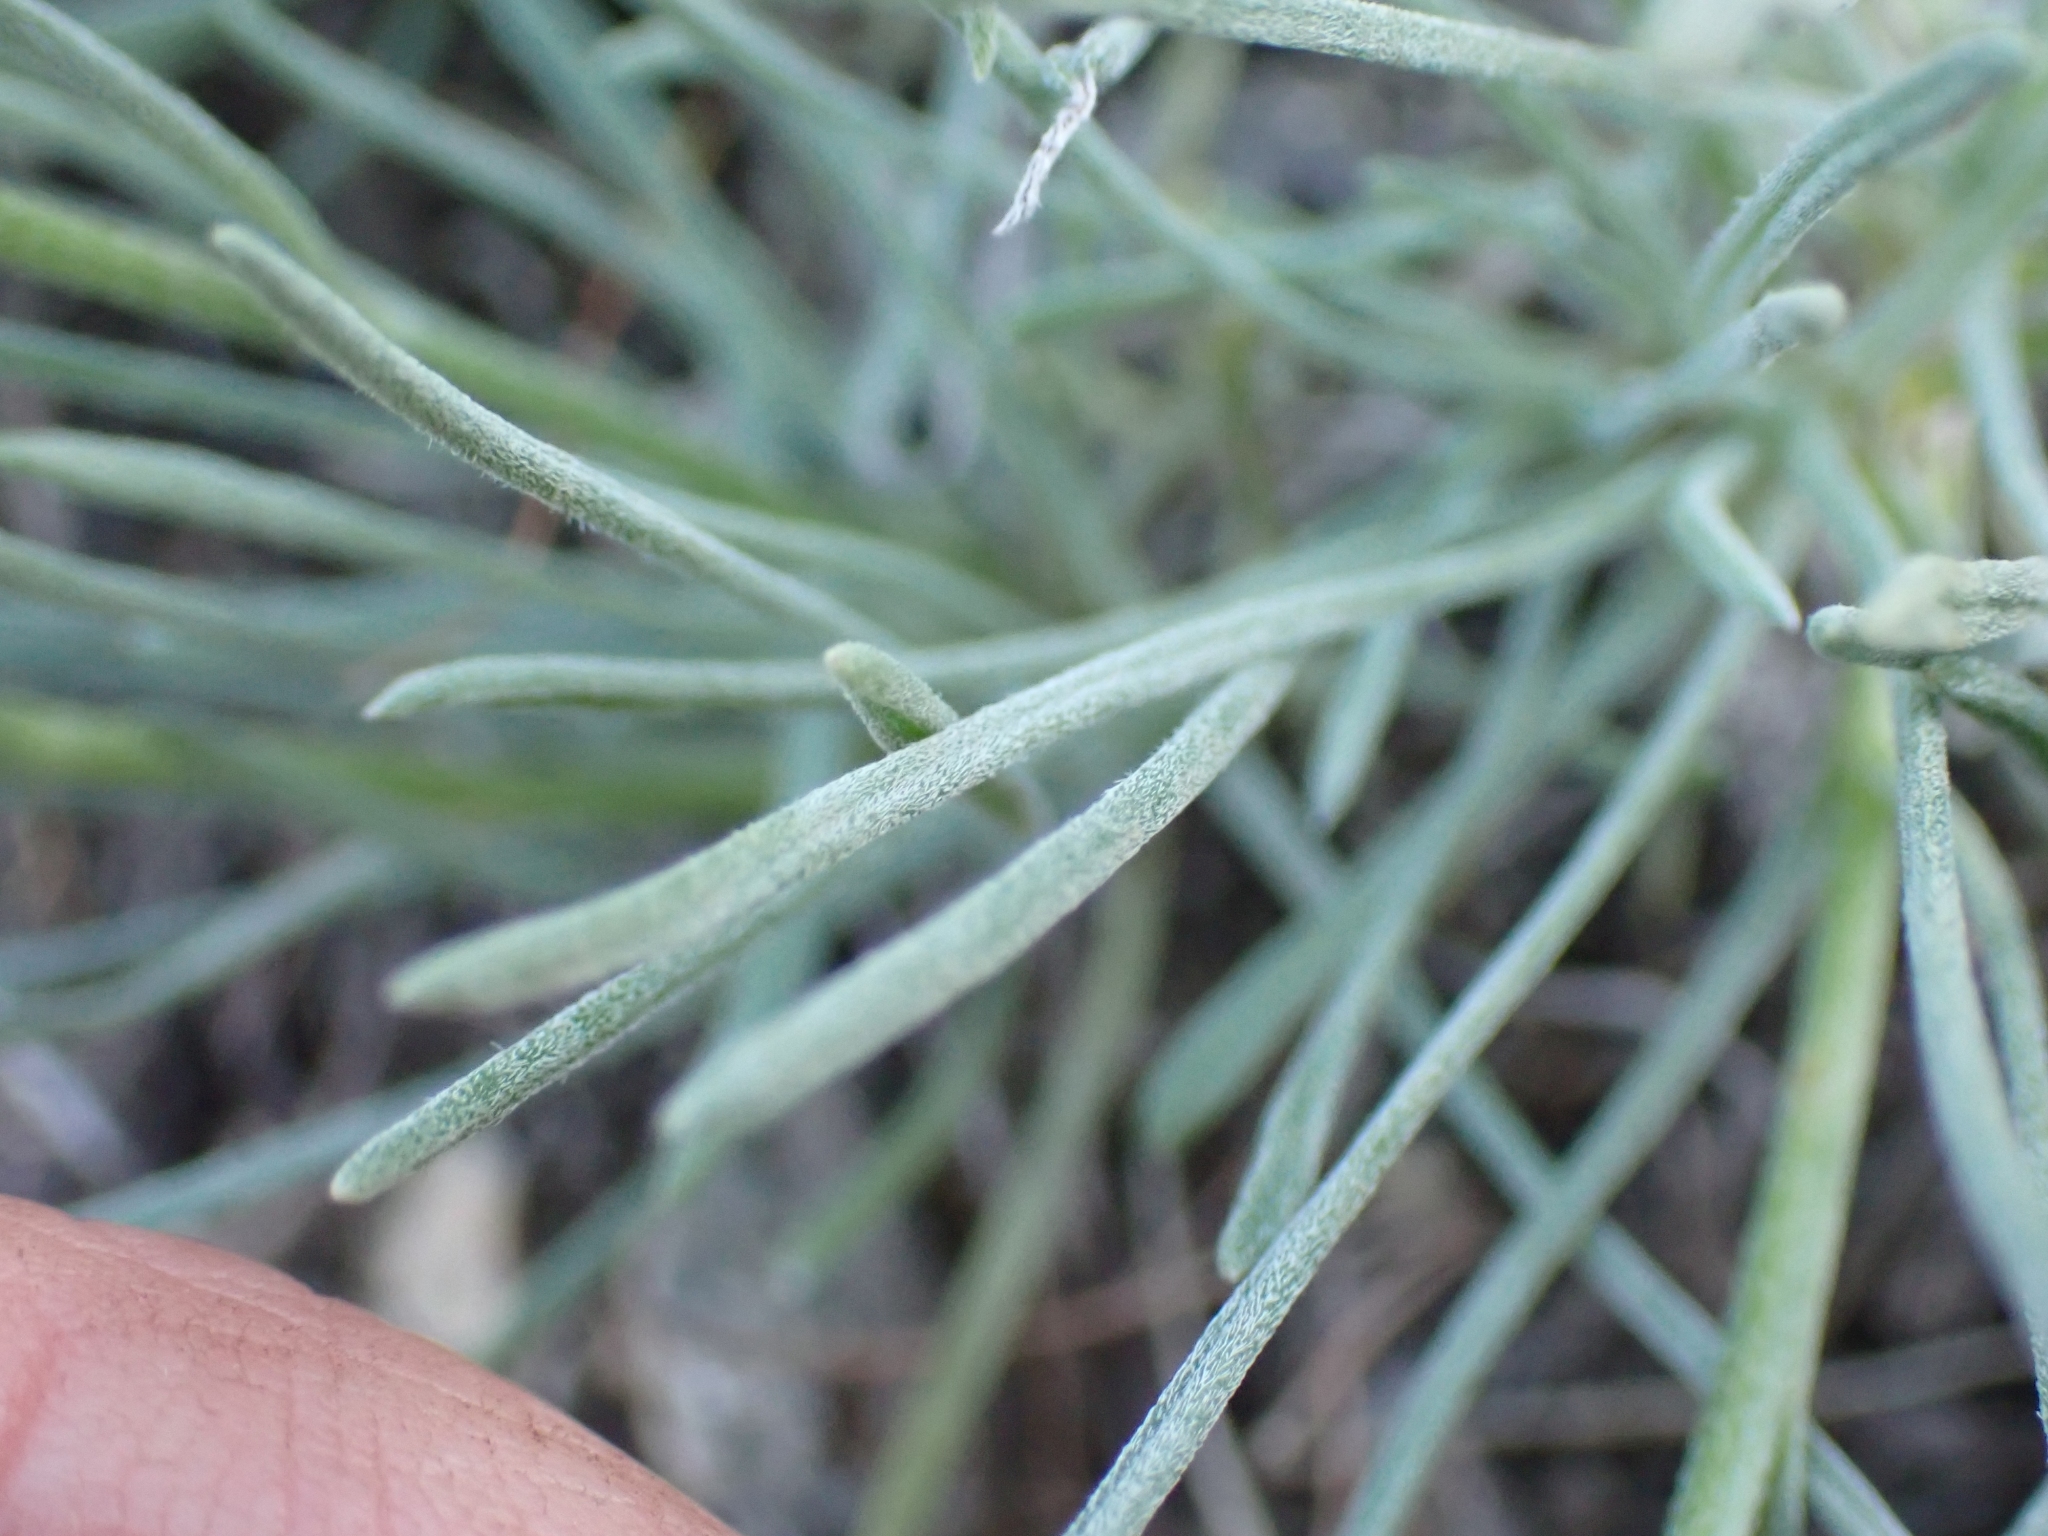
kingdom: Plantae
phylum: Tracheophyta
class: Magnoliopsida
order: Asterales
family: Asteraceae
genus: Erigeron
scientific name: Erigeron linearis
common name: Desert yellow fleabane
